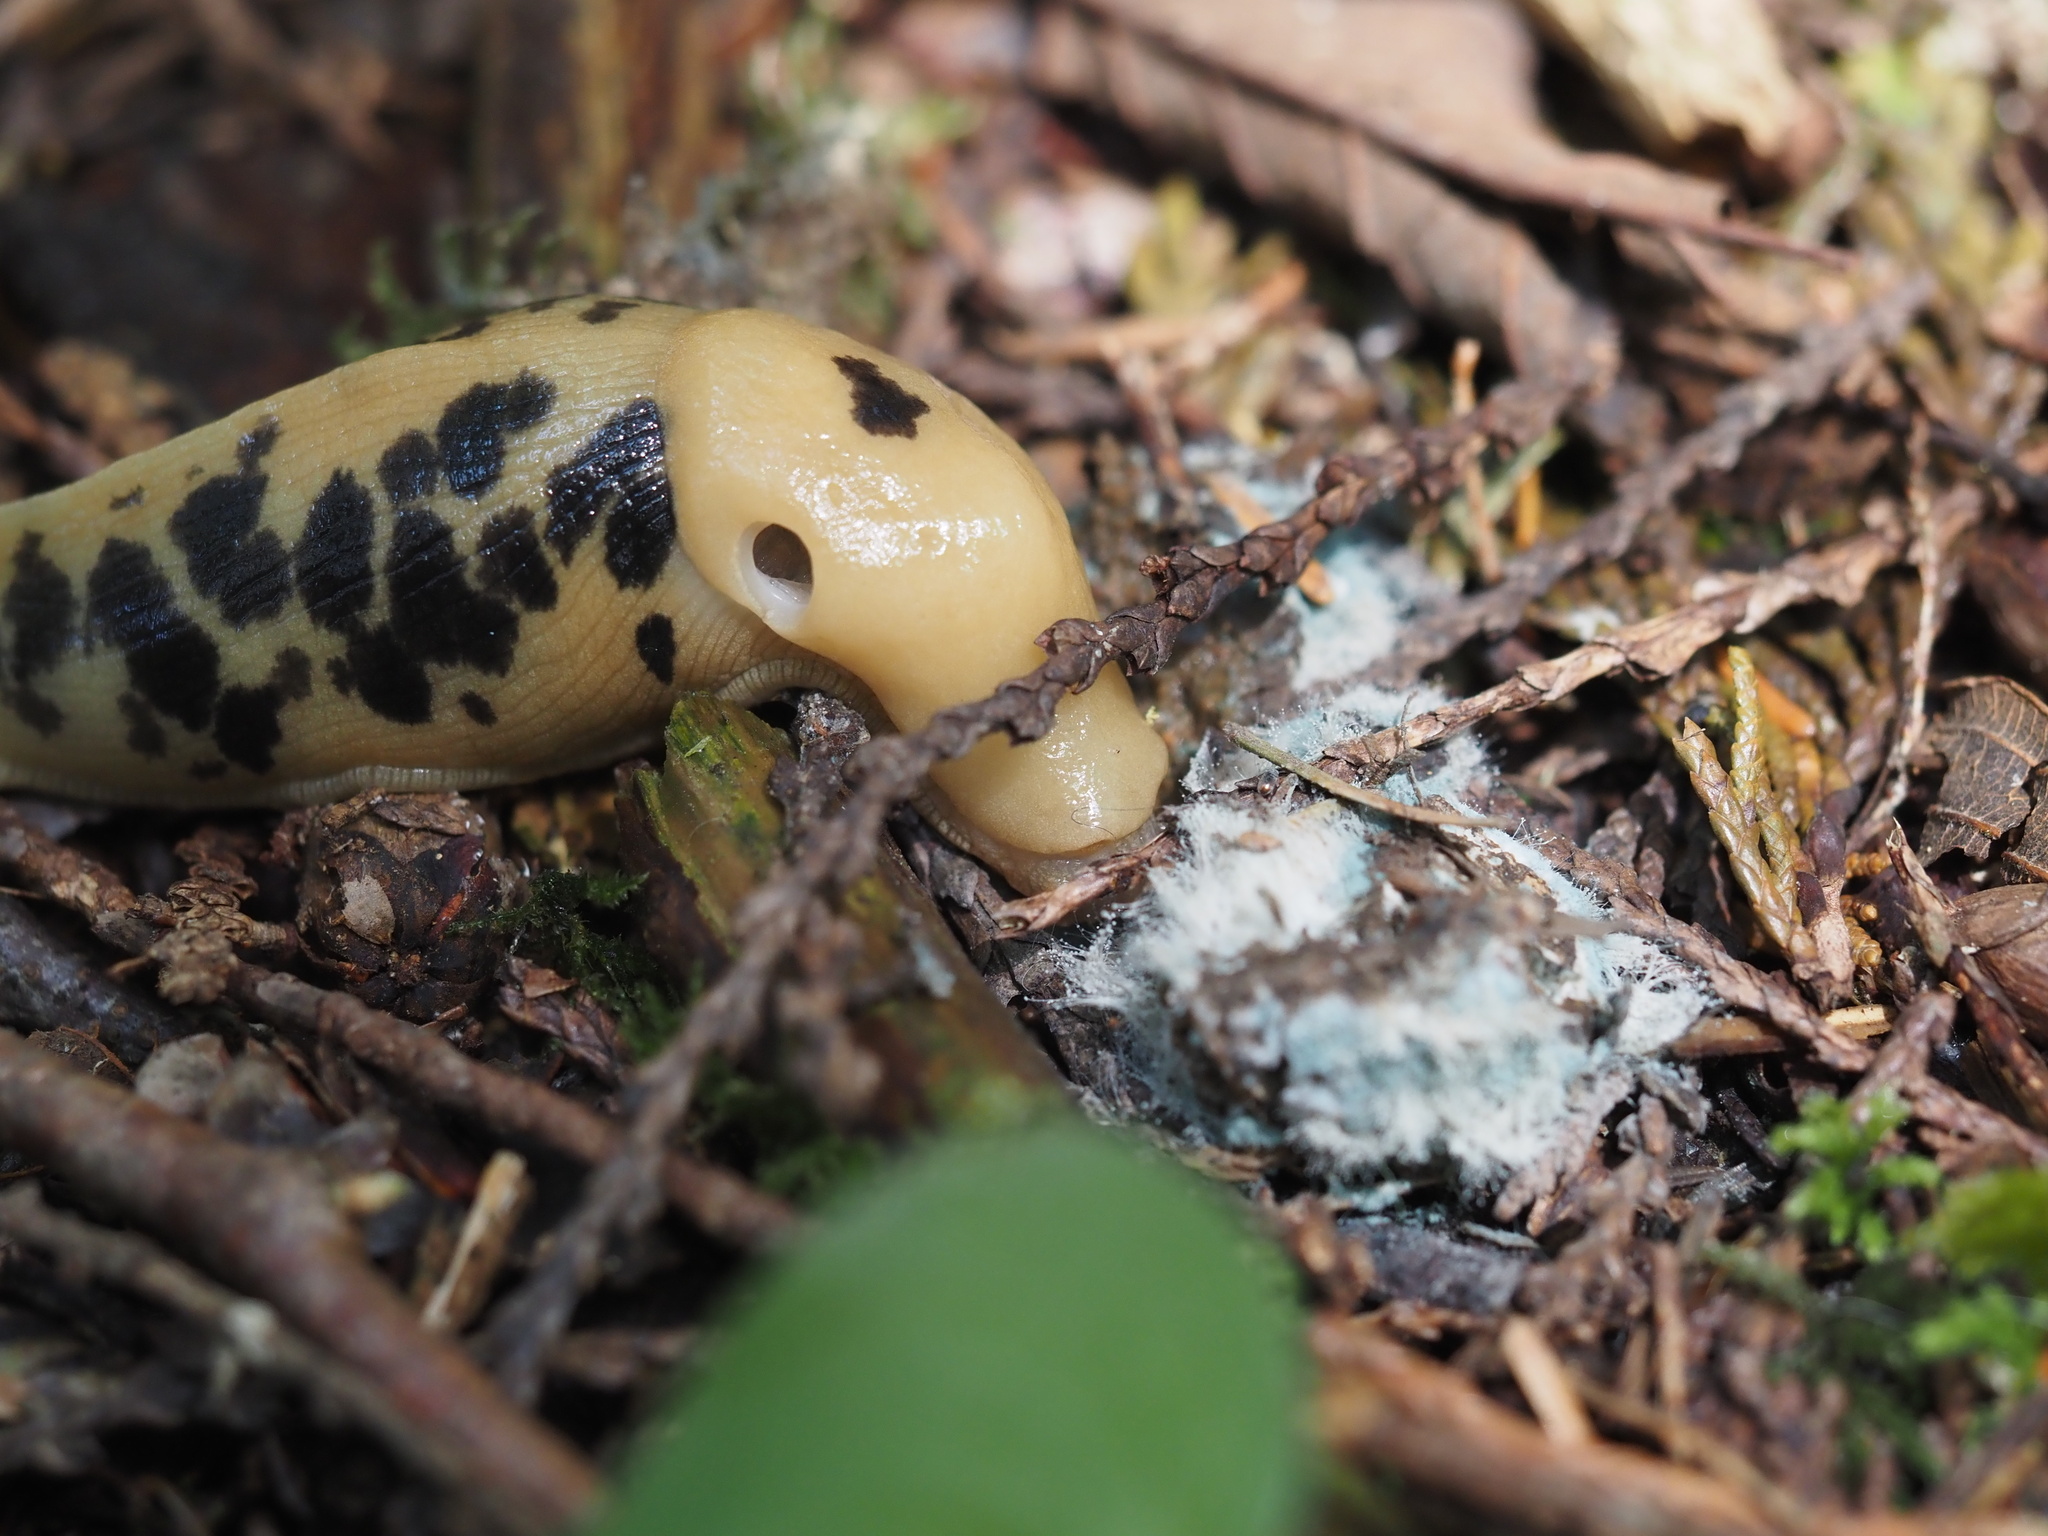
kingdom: Animalia
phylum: Mollusca
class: Gastropoda
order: Stylommatophora
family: Ariolimacidae
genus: Ariolimax
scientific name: Ariolimax columbianus
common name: Pacific banana slug
